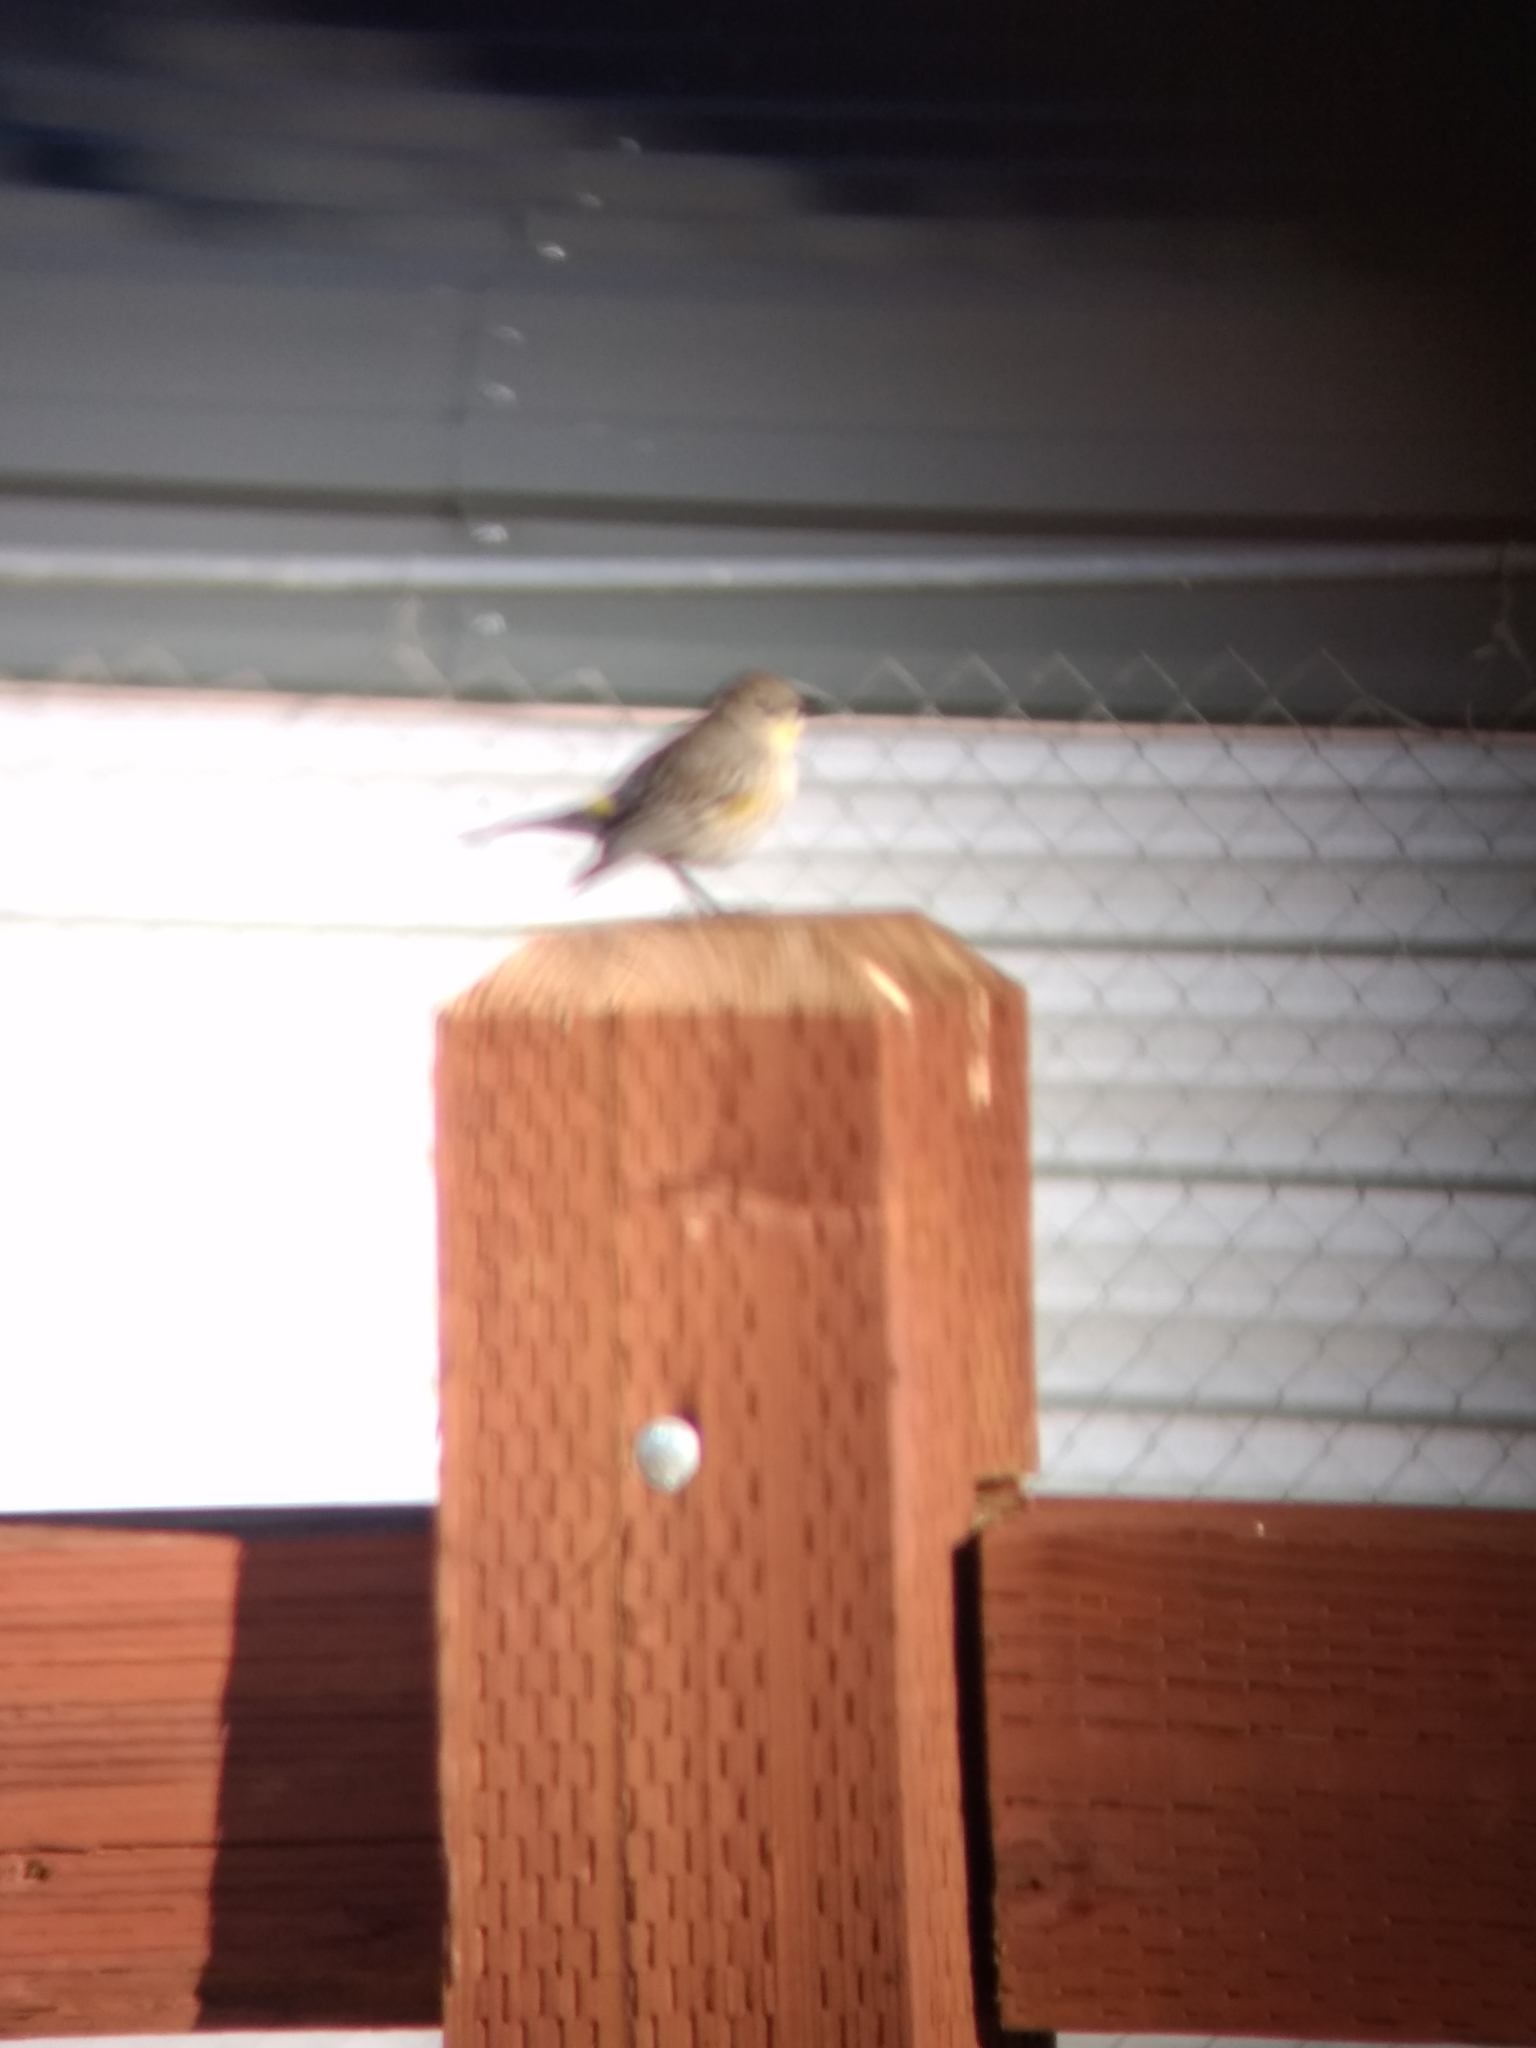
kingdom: Animalia
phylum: Chordata
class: Aves
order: Passeriformes
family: Parulidae
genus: Setophaga
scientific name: Setophaga coronata
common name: Myrtle warbler
